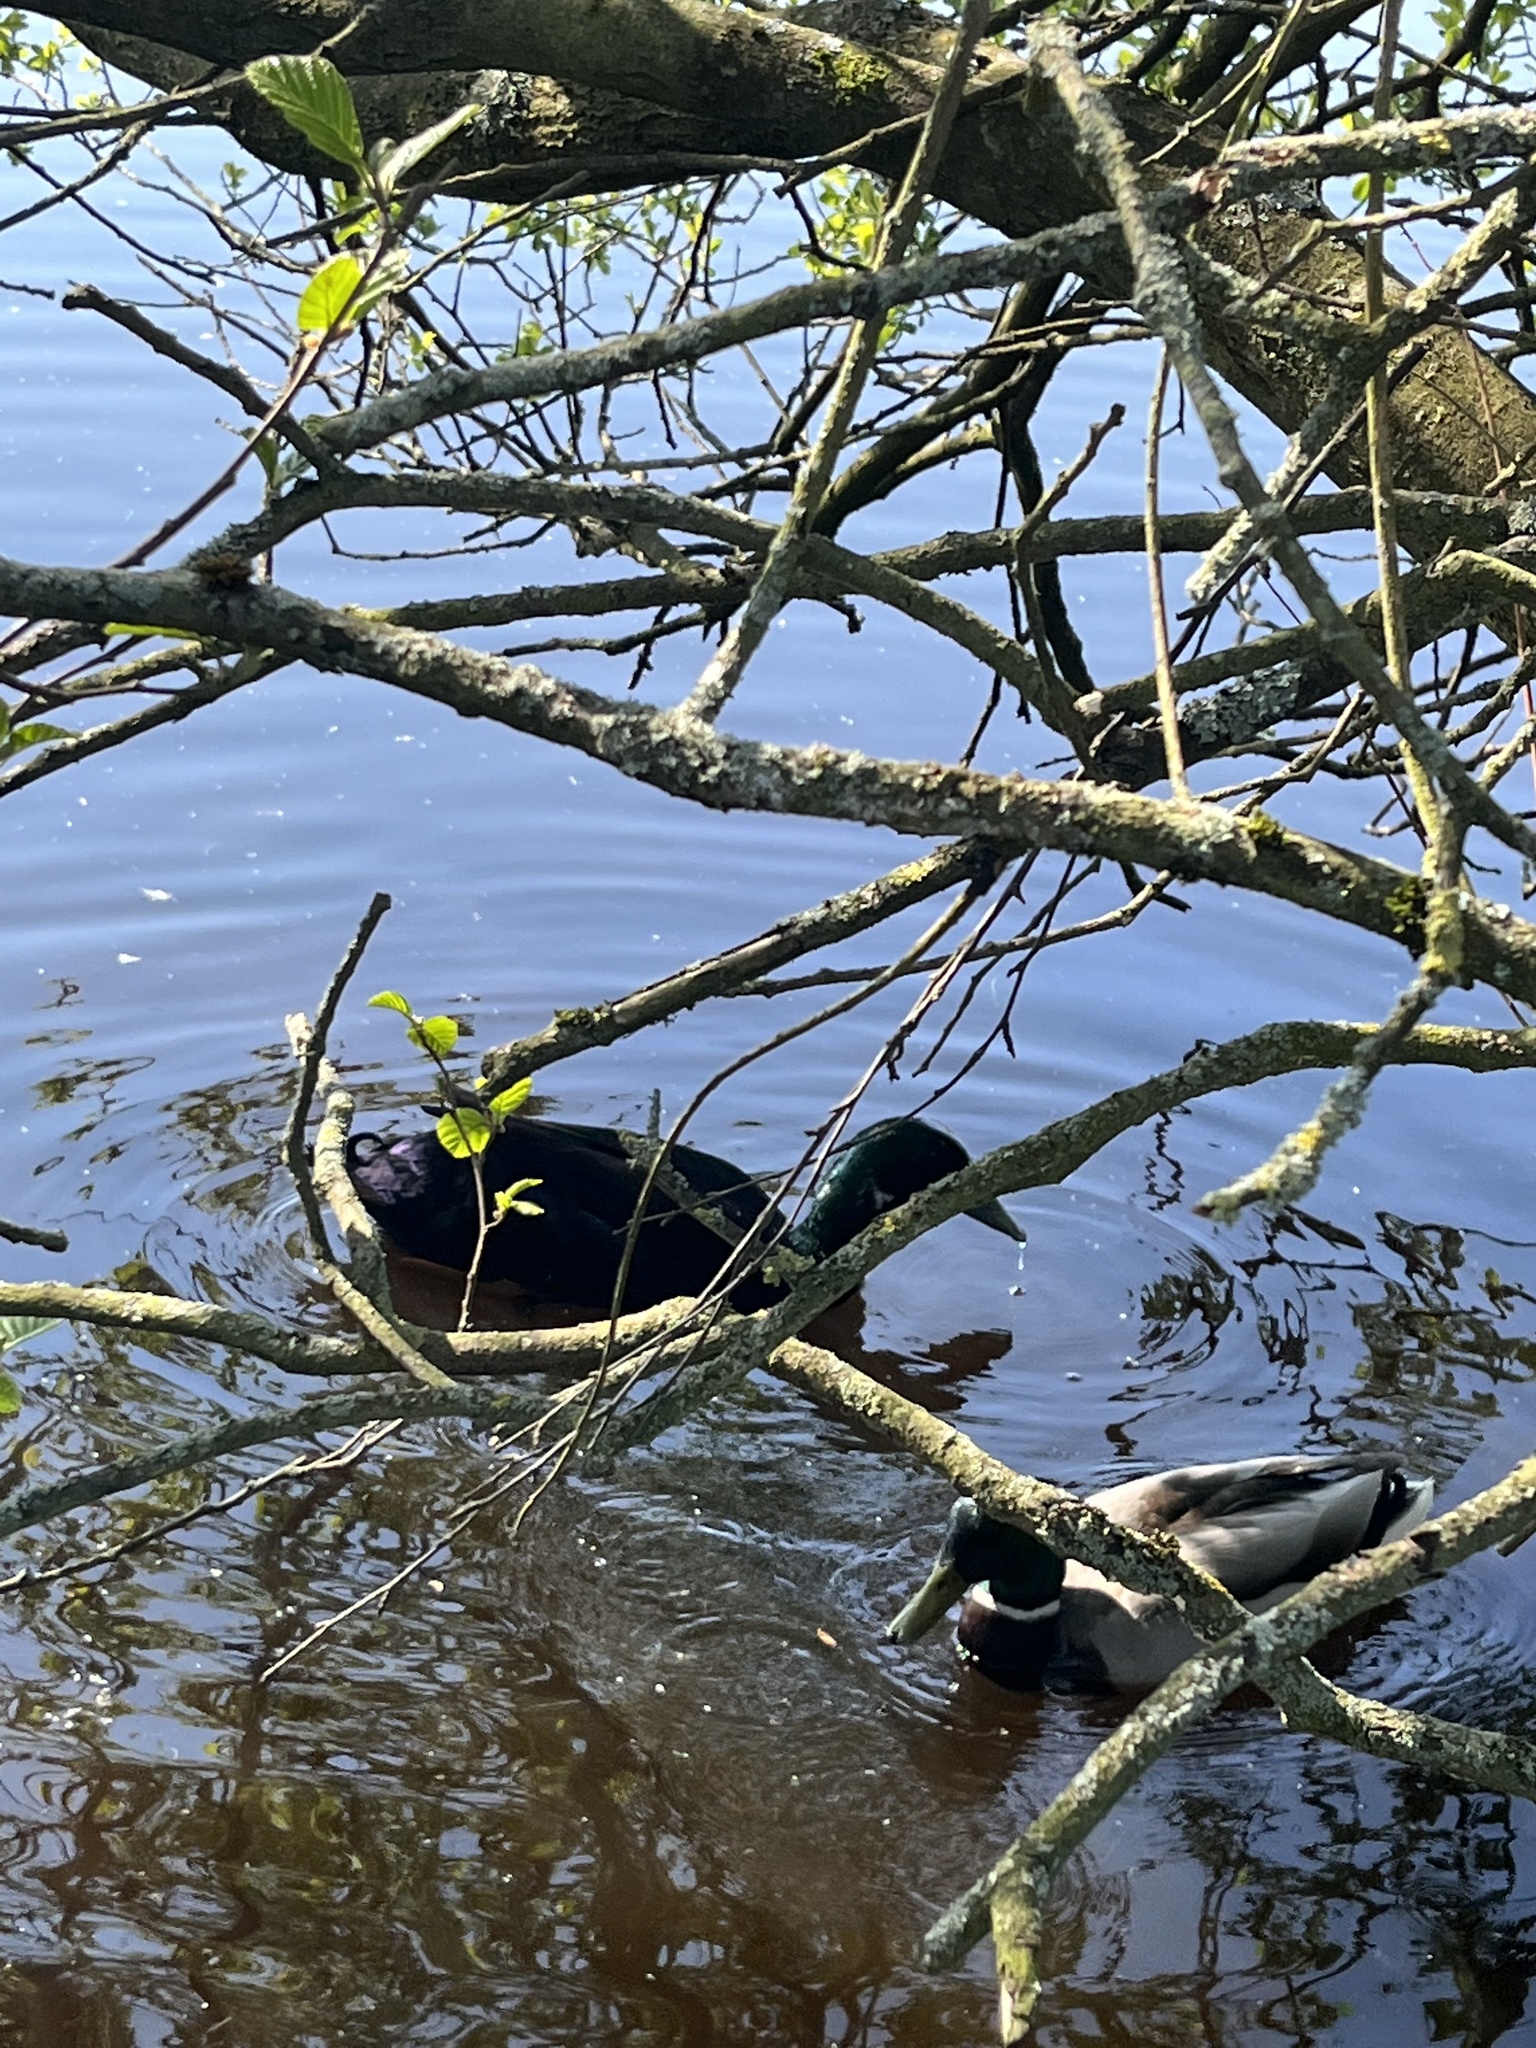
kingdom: Animalia
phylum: Chordata
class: Aves
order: Anseriformes
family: Anatidae
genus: Anas
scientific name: Anas platyrhynchos
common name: Mallard
